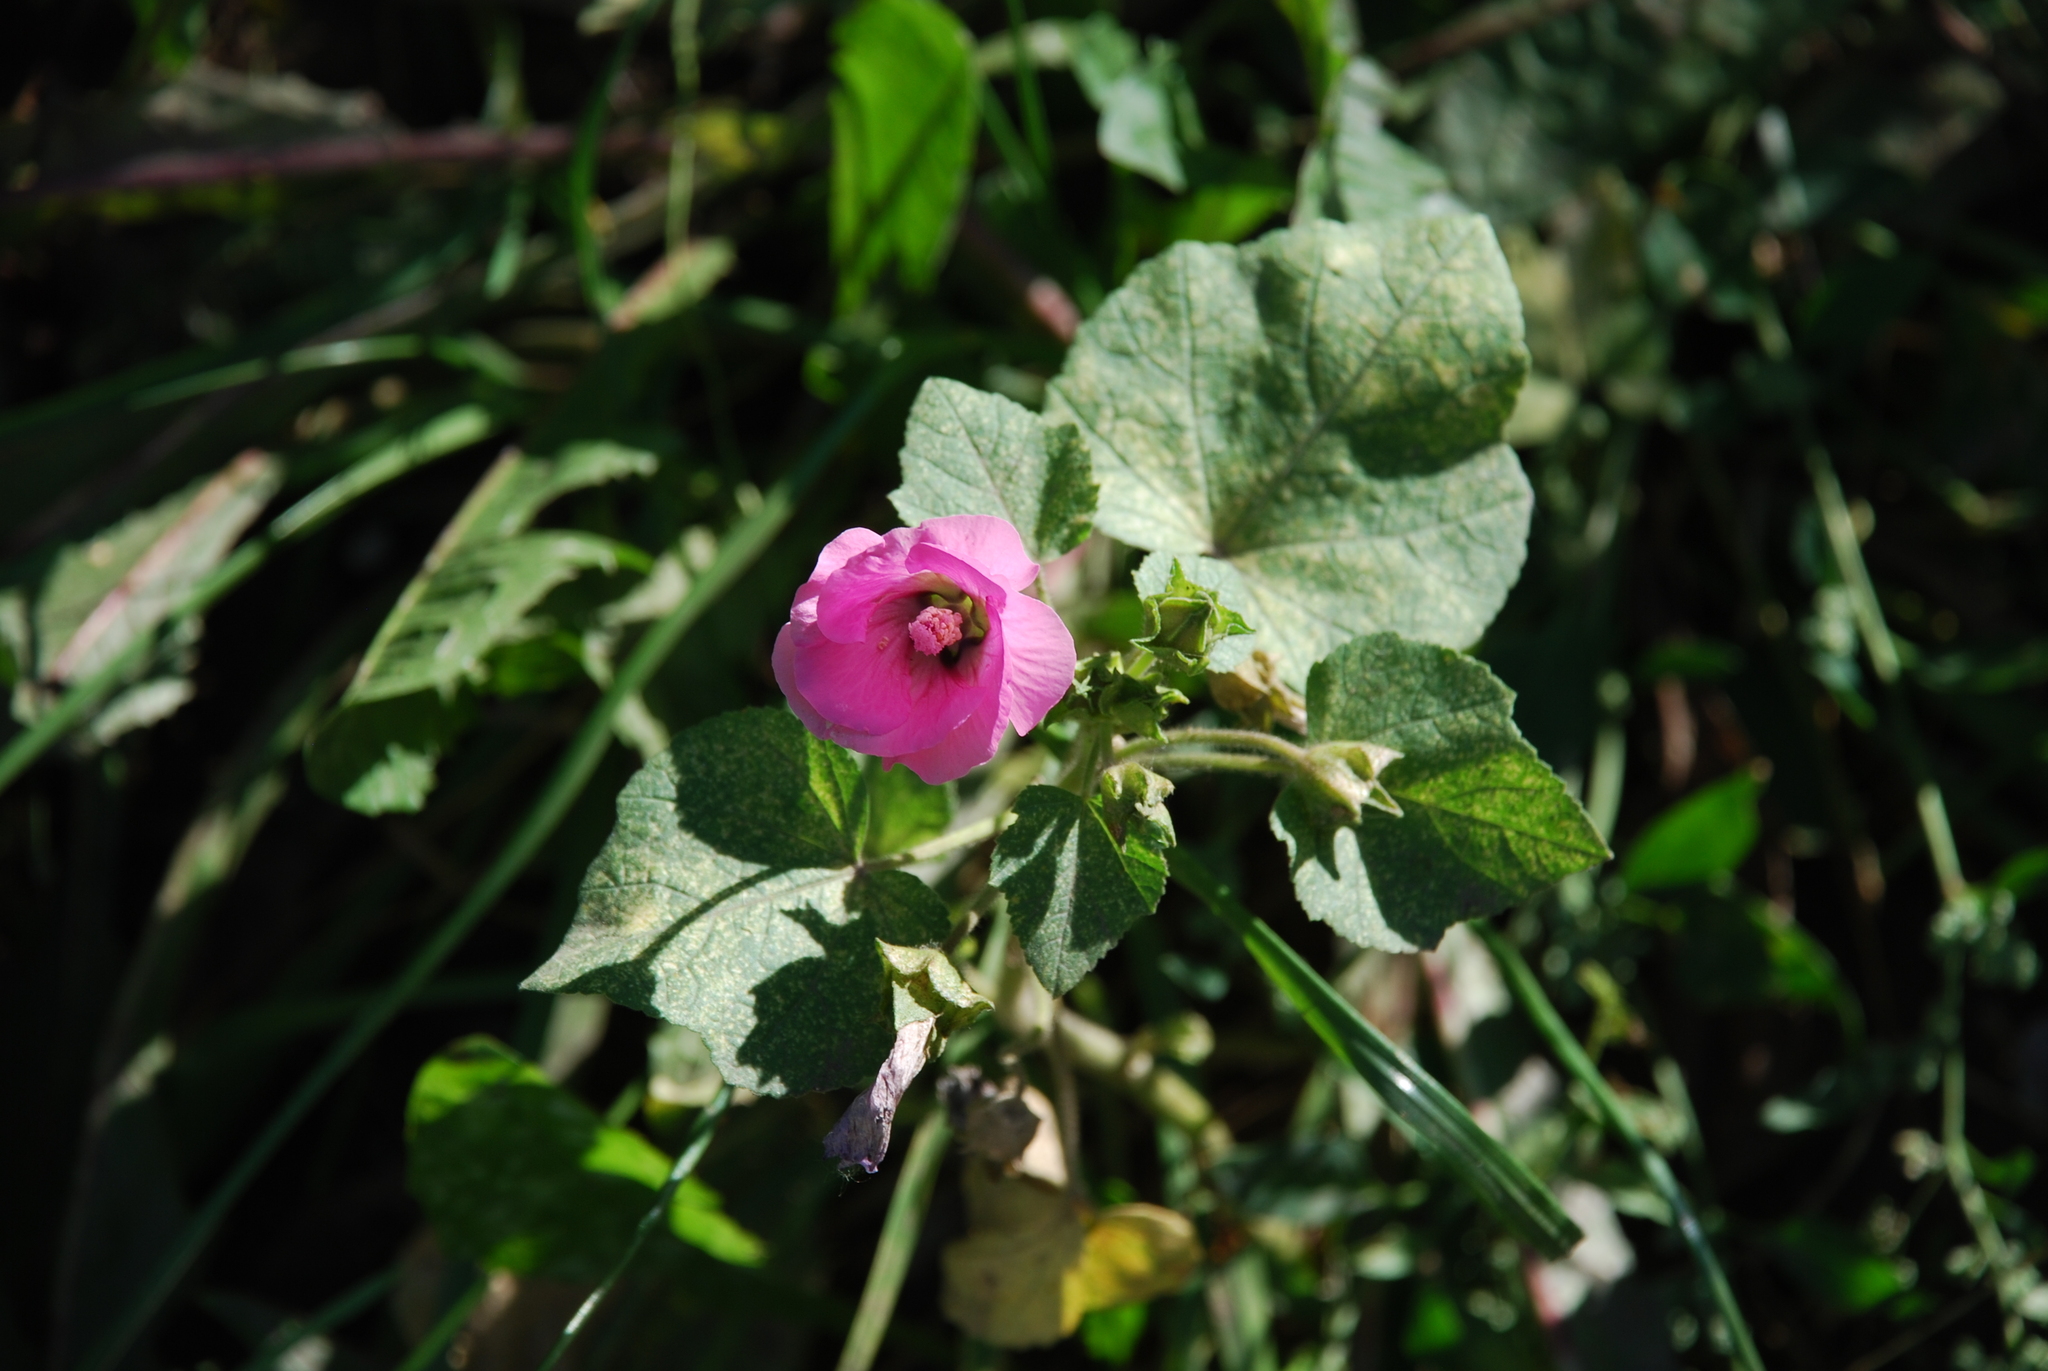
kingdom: Plantae
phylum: Tracheophyta
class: Magnoliopsida
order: Malvales
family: Malvaceae
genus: Malva
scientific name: Malva trimestris
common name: Royal mallow
